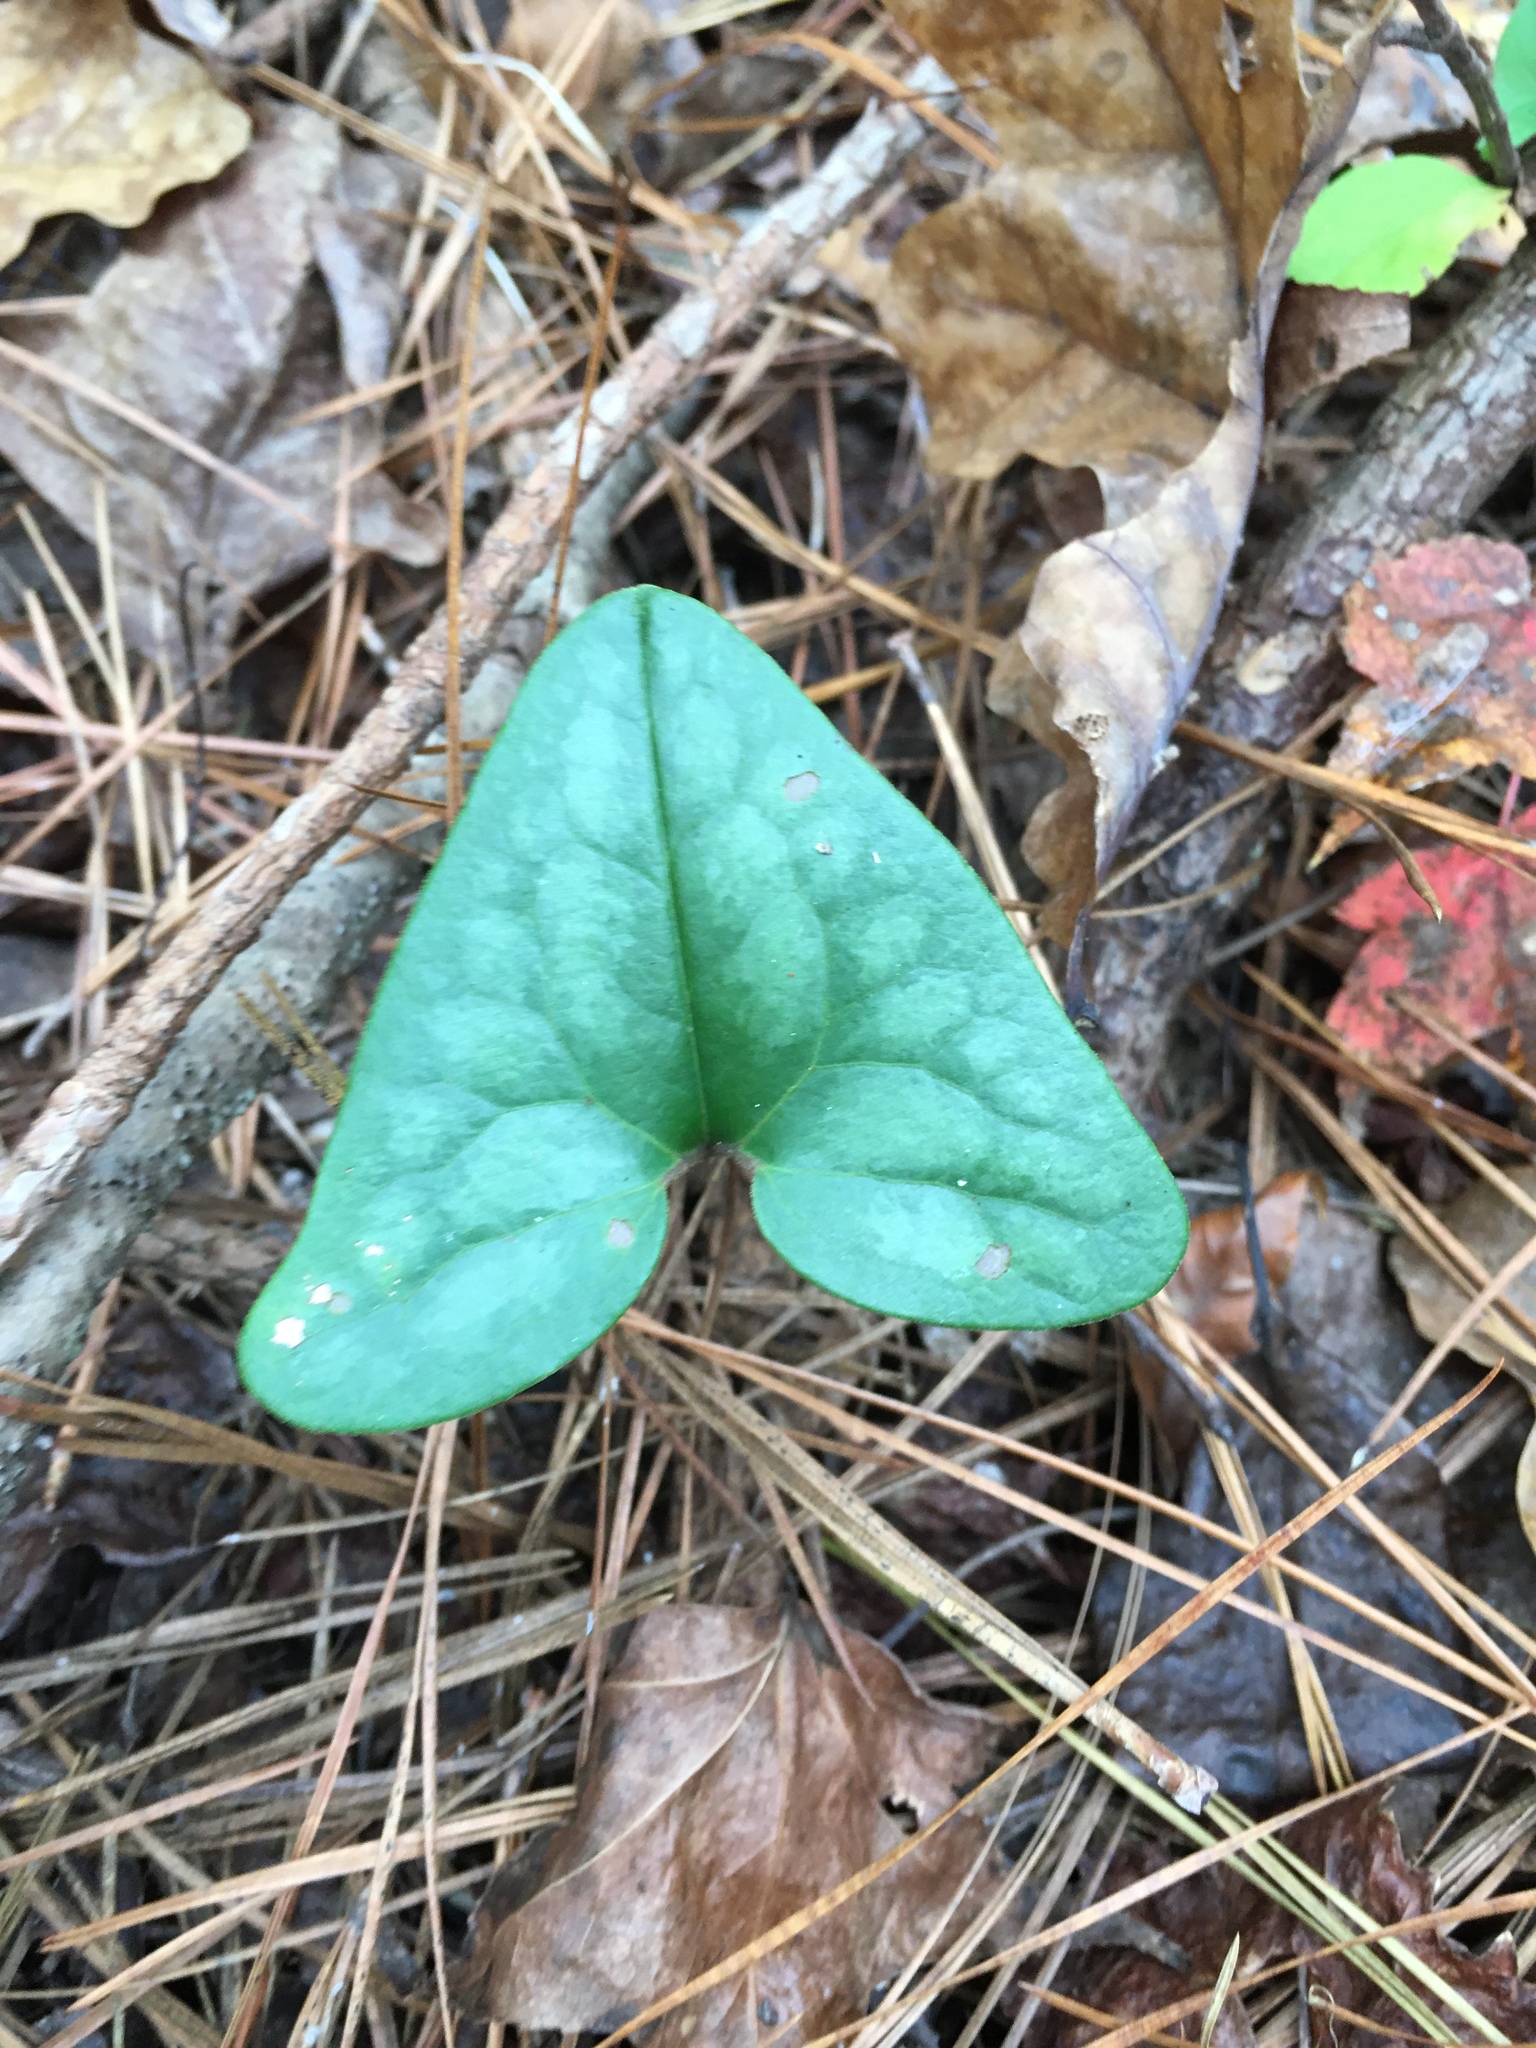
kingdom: Plantae
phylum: Tracheophyta
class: Magnoliopsida
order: Piperales
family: Aristolochiaceae
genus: Hexastylis
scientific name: Hexastylis arifolia
